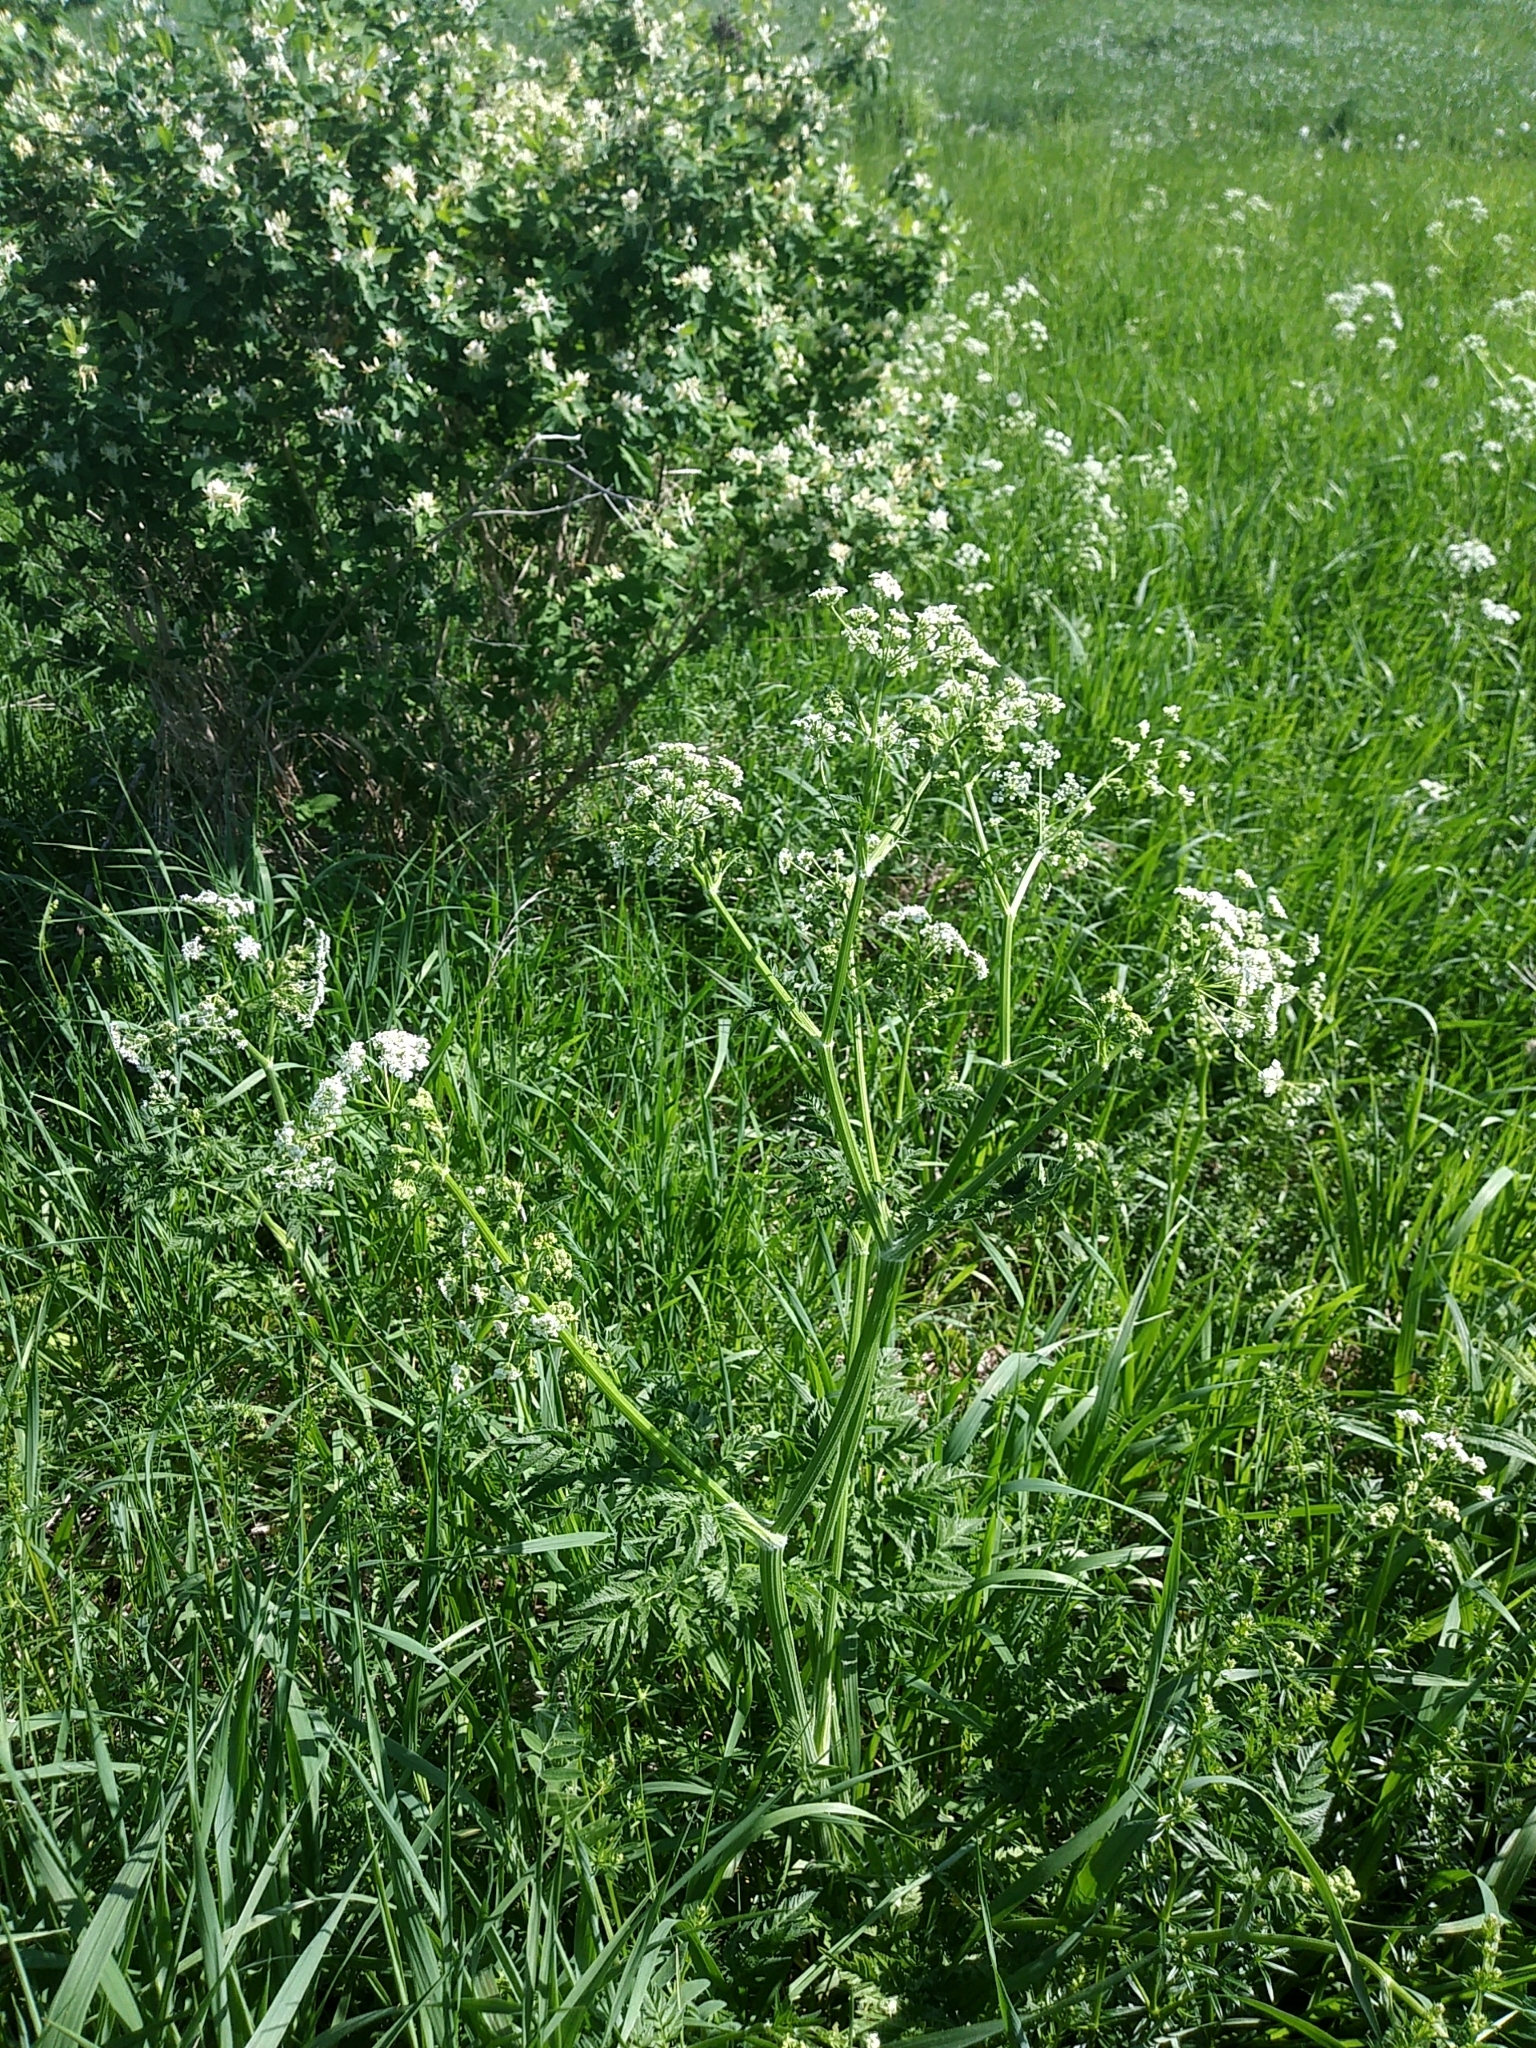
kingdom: Plantae
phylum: Tracheophyta
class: Magnoliopsida
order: Apiales
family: Apiaceae
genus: Anthriscus
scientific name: Anthriscus sylvestris
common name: Cow parsley
